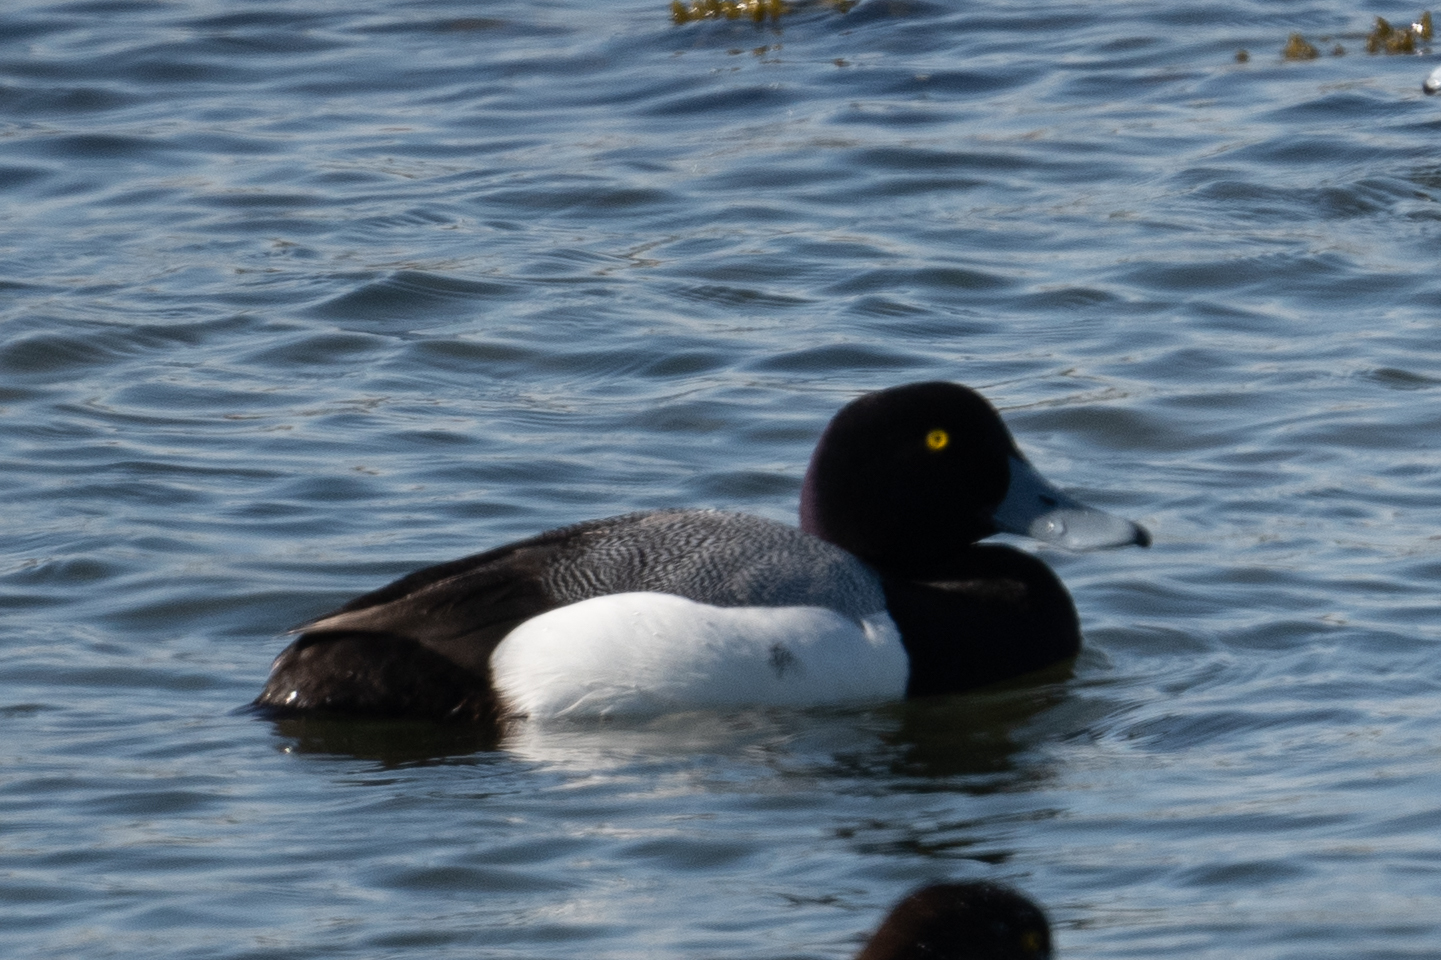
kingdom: Animalia
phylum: Chordata
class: Aves
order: Anseriformes
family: Anatidae
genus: Aythya
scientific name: Aythya marila
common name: Greater scaup
